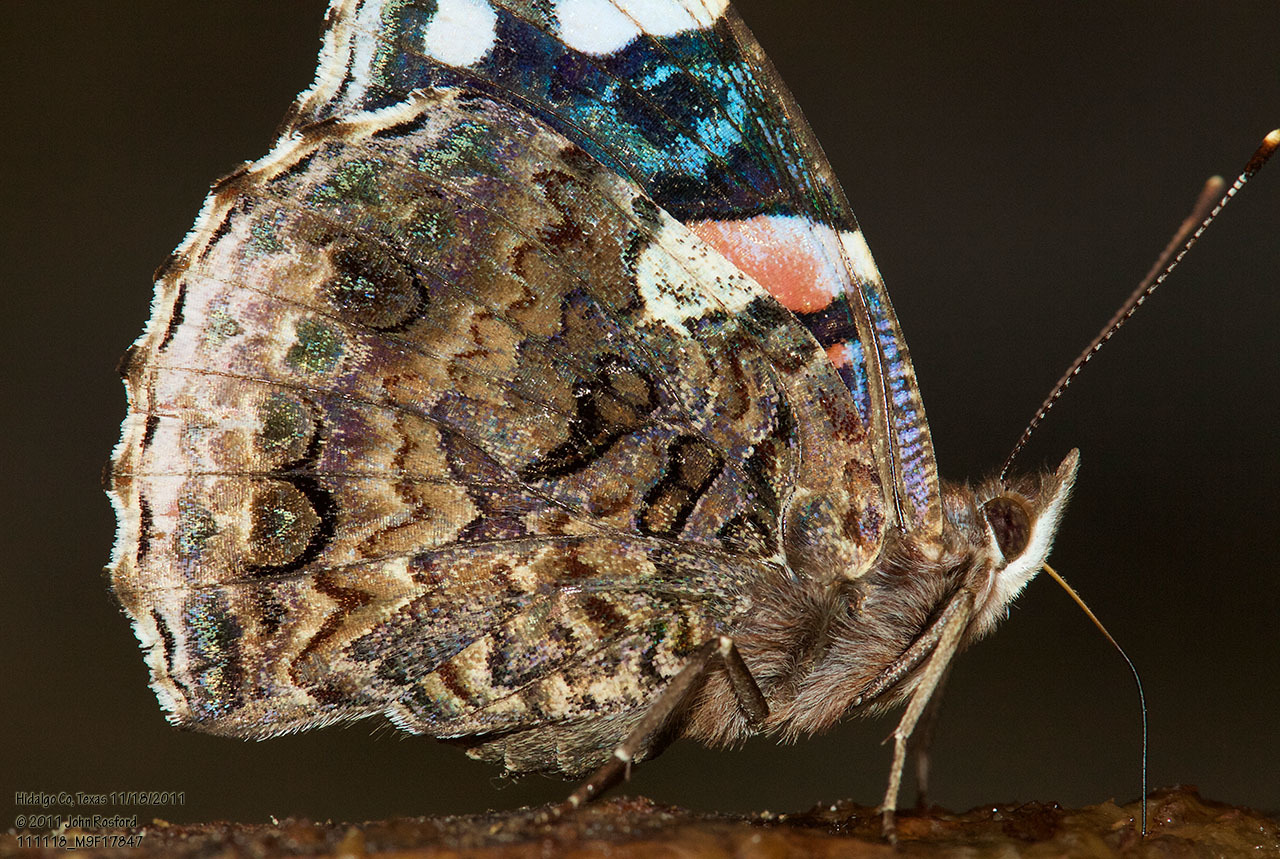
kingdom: Animalia
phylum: Arthropoda
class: Insecta
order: Lepidoptera
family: Nymphalidae
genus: Vanessa
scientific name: Vanessa atalanta
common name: Red admiral
